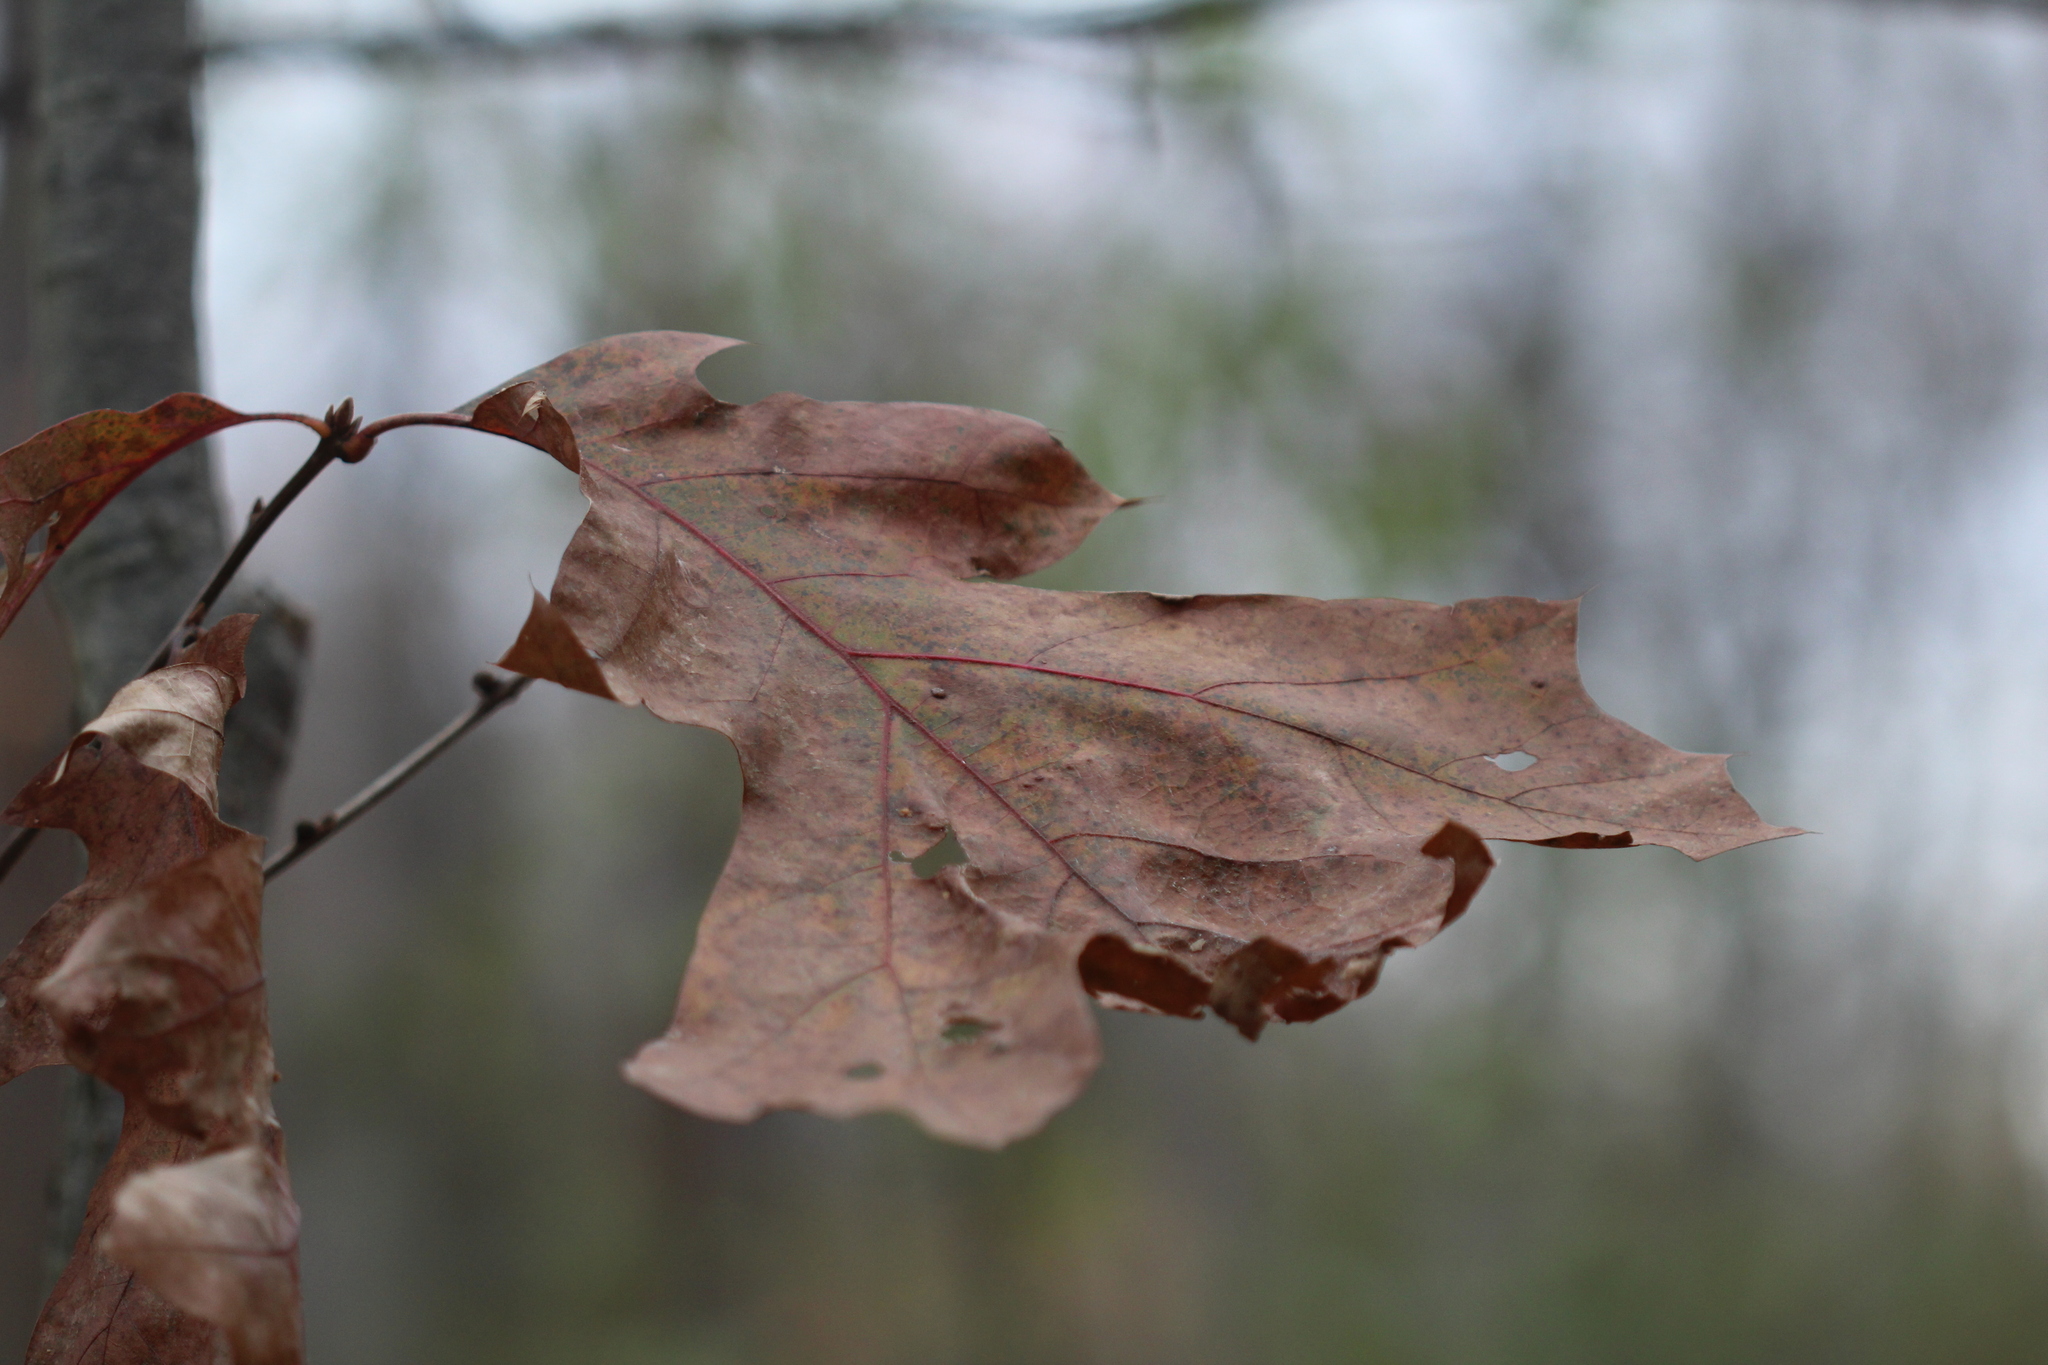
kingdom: Plantae
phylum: Tracheophyta
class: Magnoliopsida
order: Fagales
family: Fagaceae
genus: Quercus
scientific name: Quercus velutina
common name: Black oak
